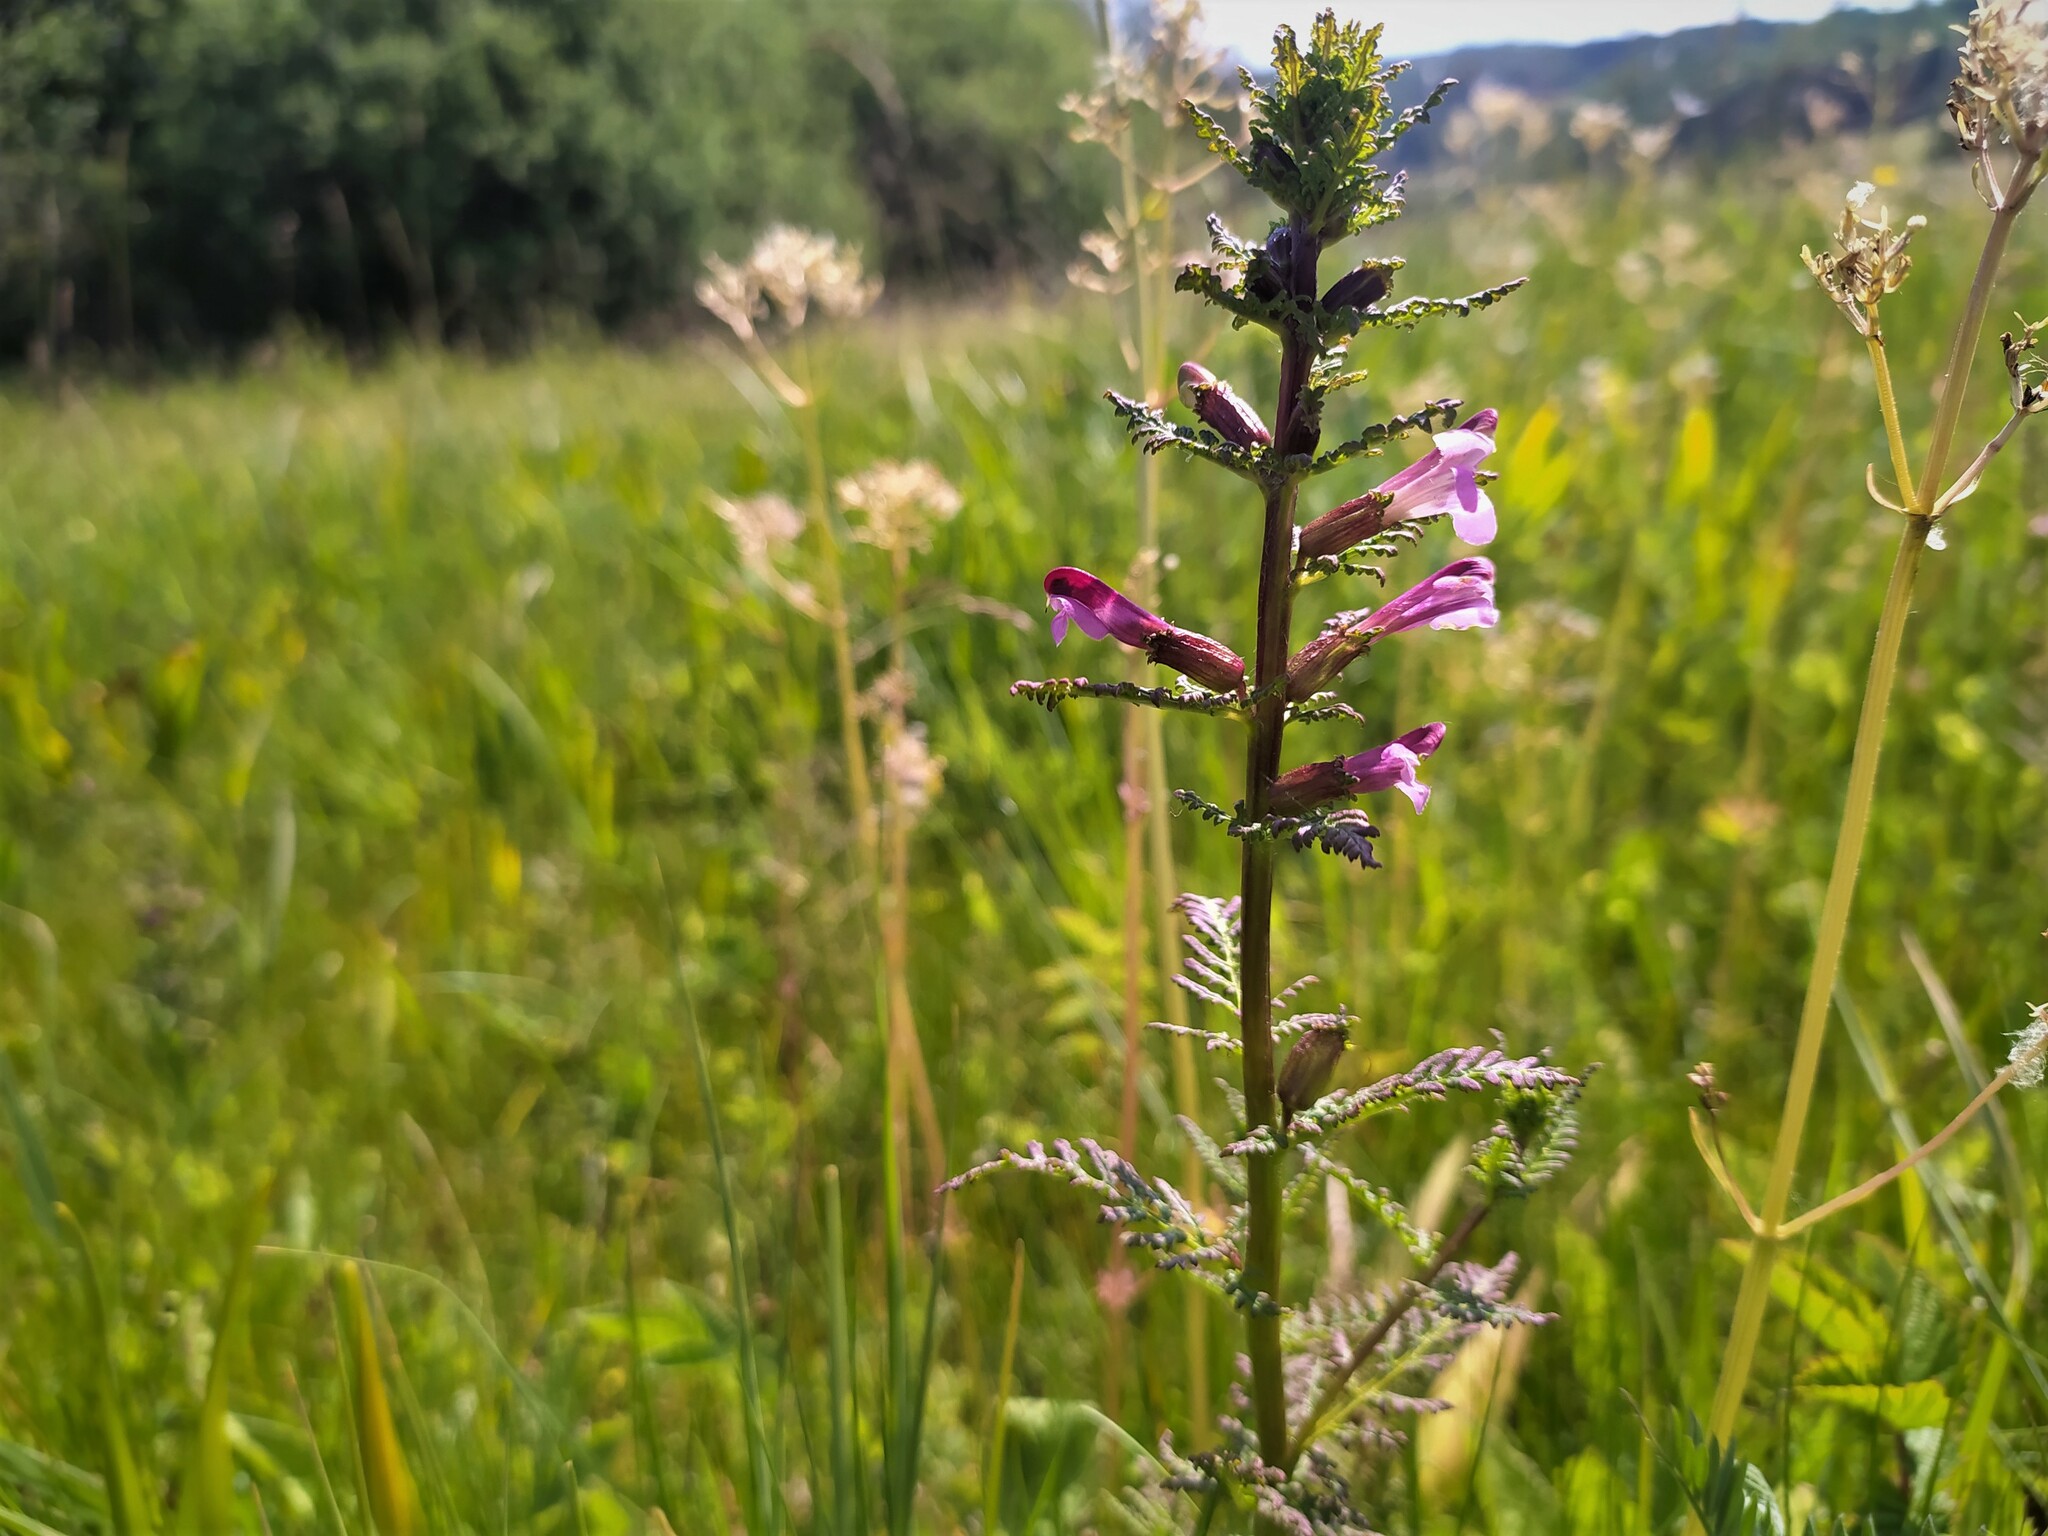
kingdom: Plantae
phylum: Tracheophyta
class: Magnoliopsida
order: Lamiales
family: Orobanchaceae
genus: Pedicularis
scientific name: Pedicularis palustris
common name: Marsh lousewort
